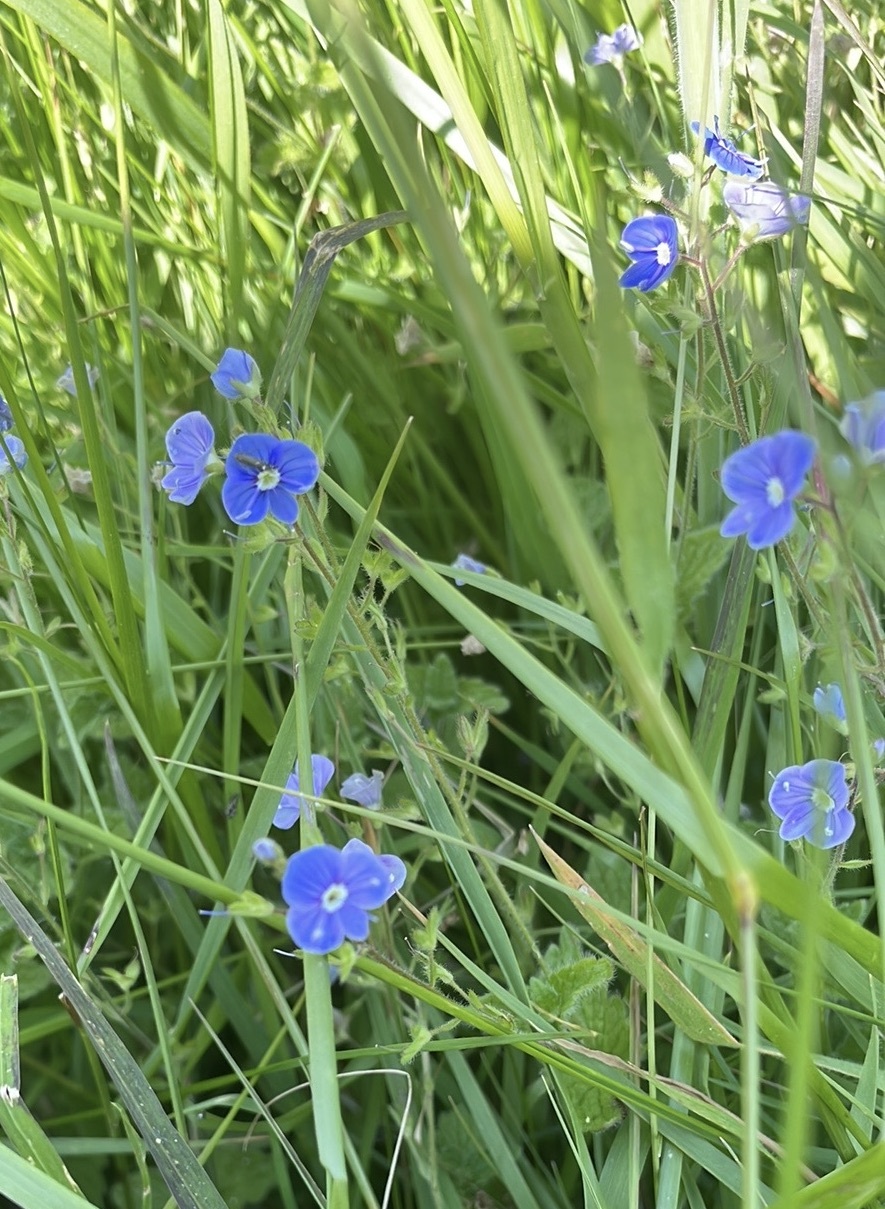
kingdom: Plantae
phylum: Tracheophyta
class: Magnoliopsida
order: Lamiales
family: Plantaginaceae
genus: Veronica
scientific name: Veronica chamaedrys
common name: Germander speedwell
